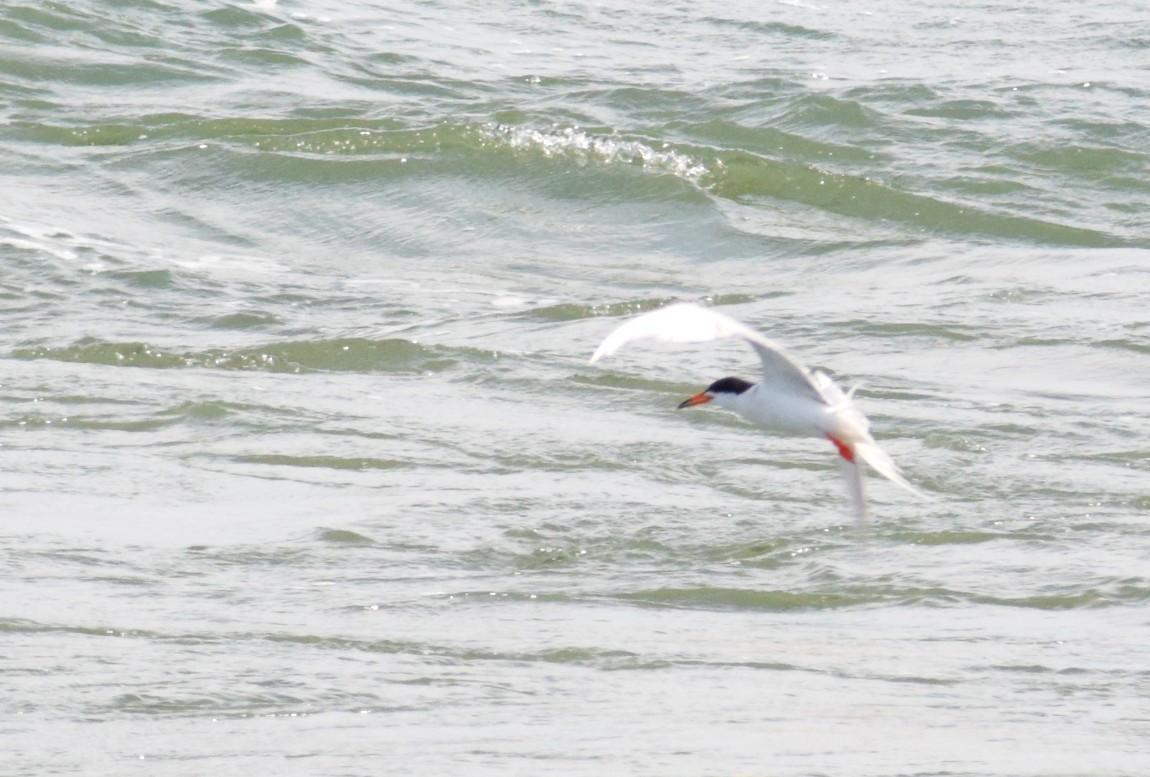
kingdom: Animalia
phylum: Chordata
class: Aves
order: Charadriiformes
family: Laridae
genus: Sterna
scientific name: Sterna forsteri
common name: Forster's tern
